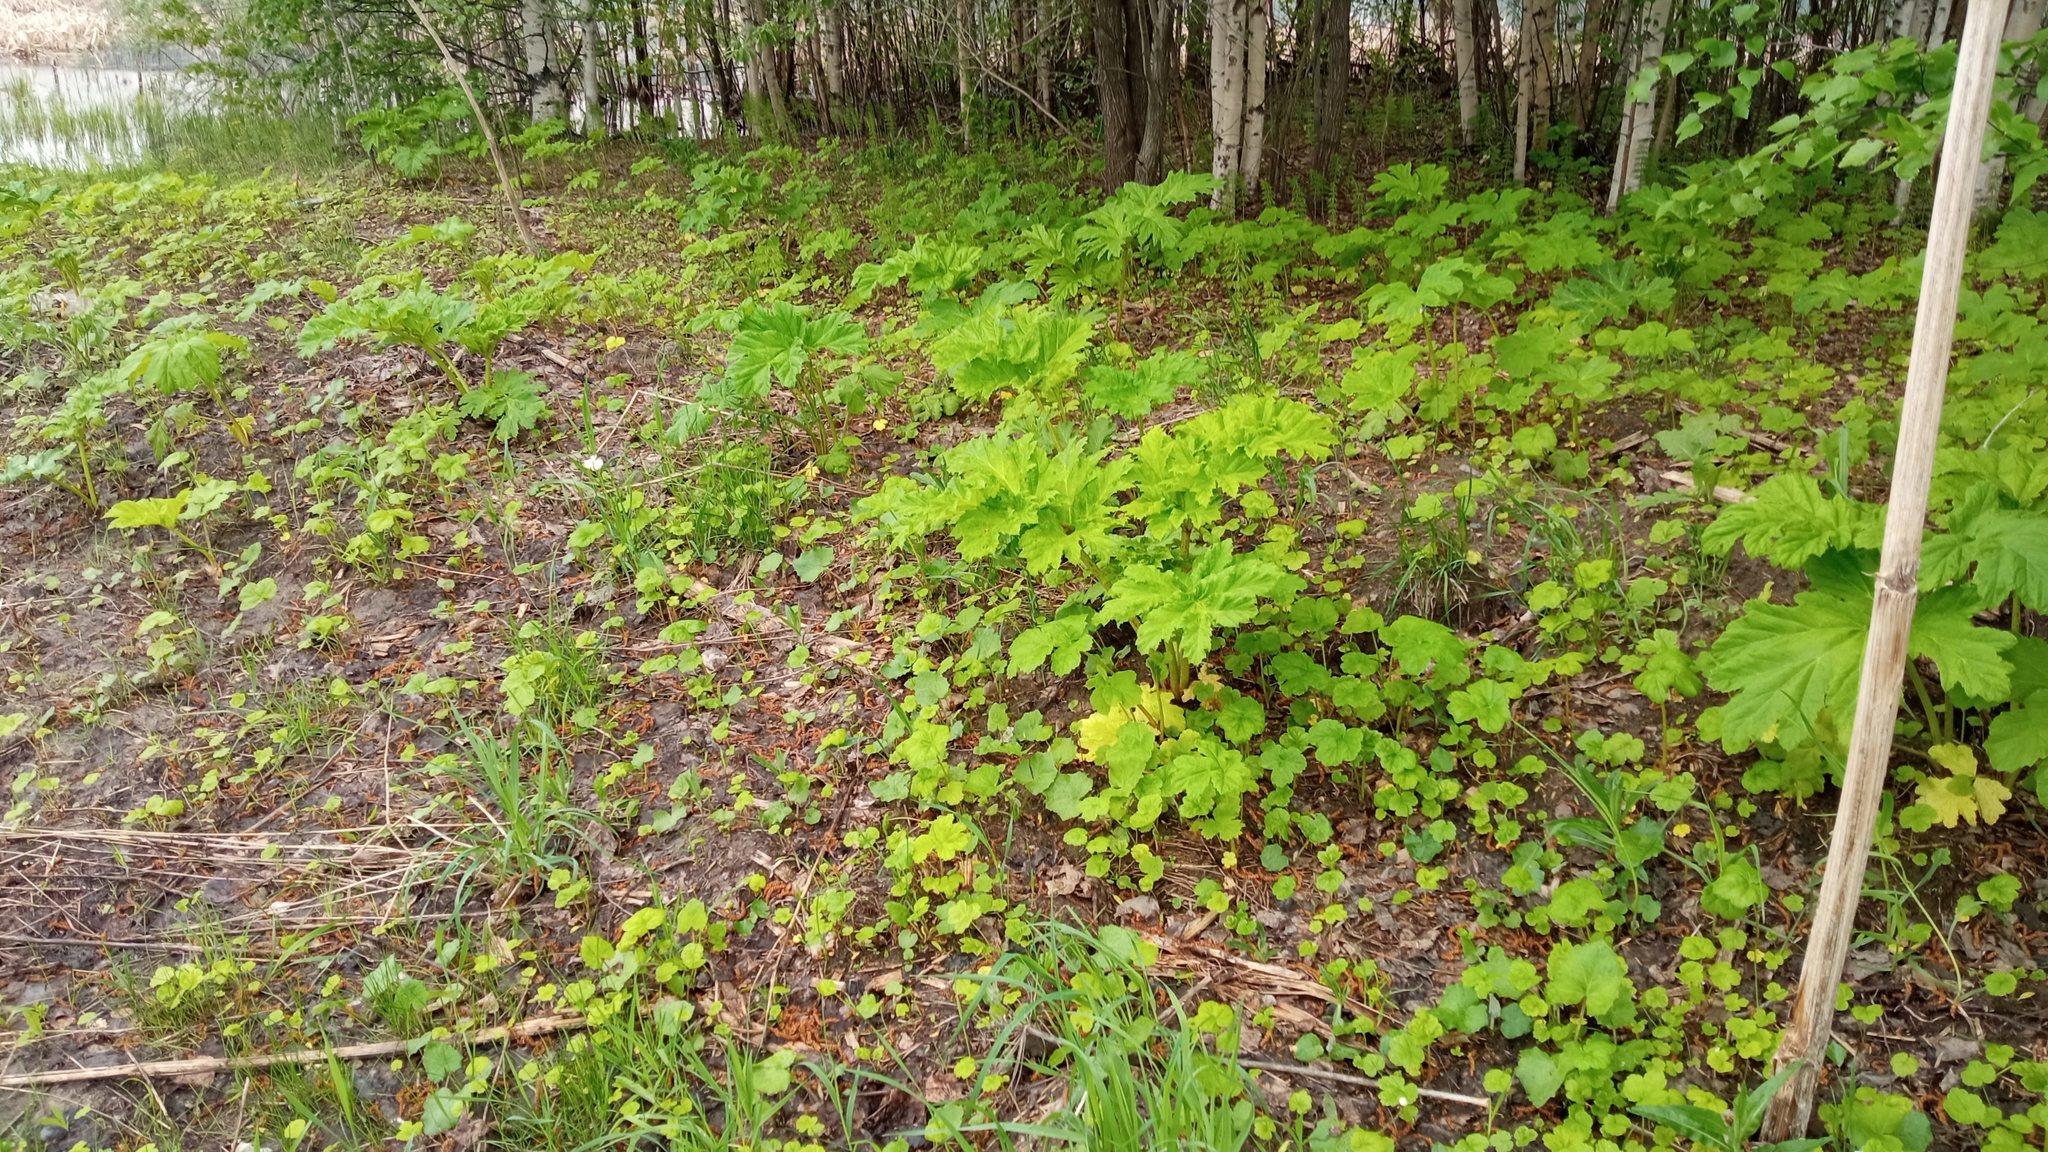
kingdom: Plantae
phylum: Tracheophyta
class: Magnoliopsida
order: Apiales
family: Apiaceae
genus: Heracleum
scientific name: Heracleum sosnowskyi
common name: Sosnowsky's hogweed
